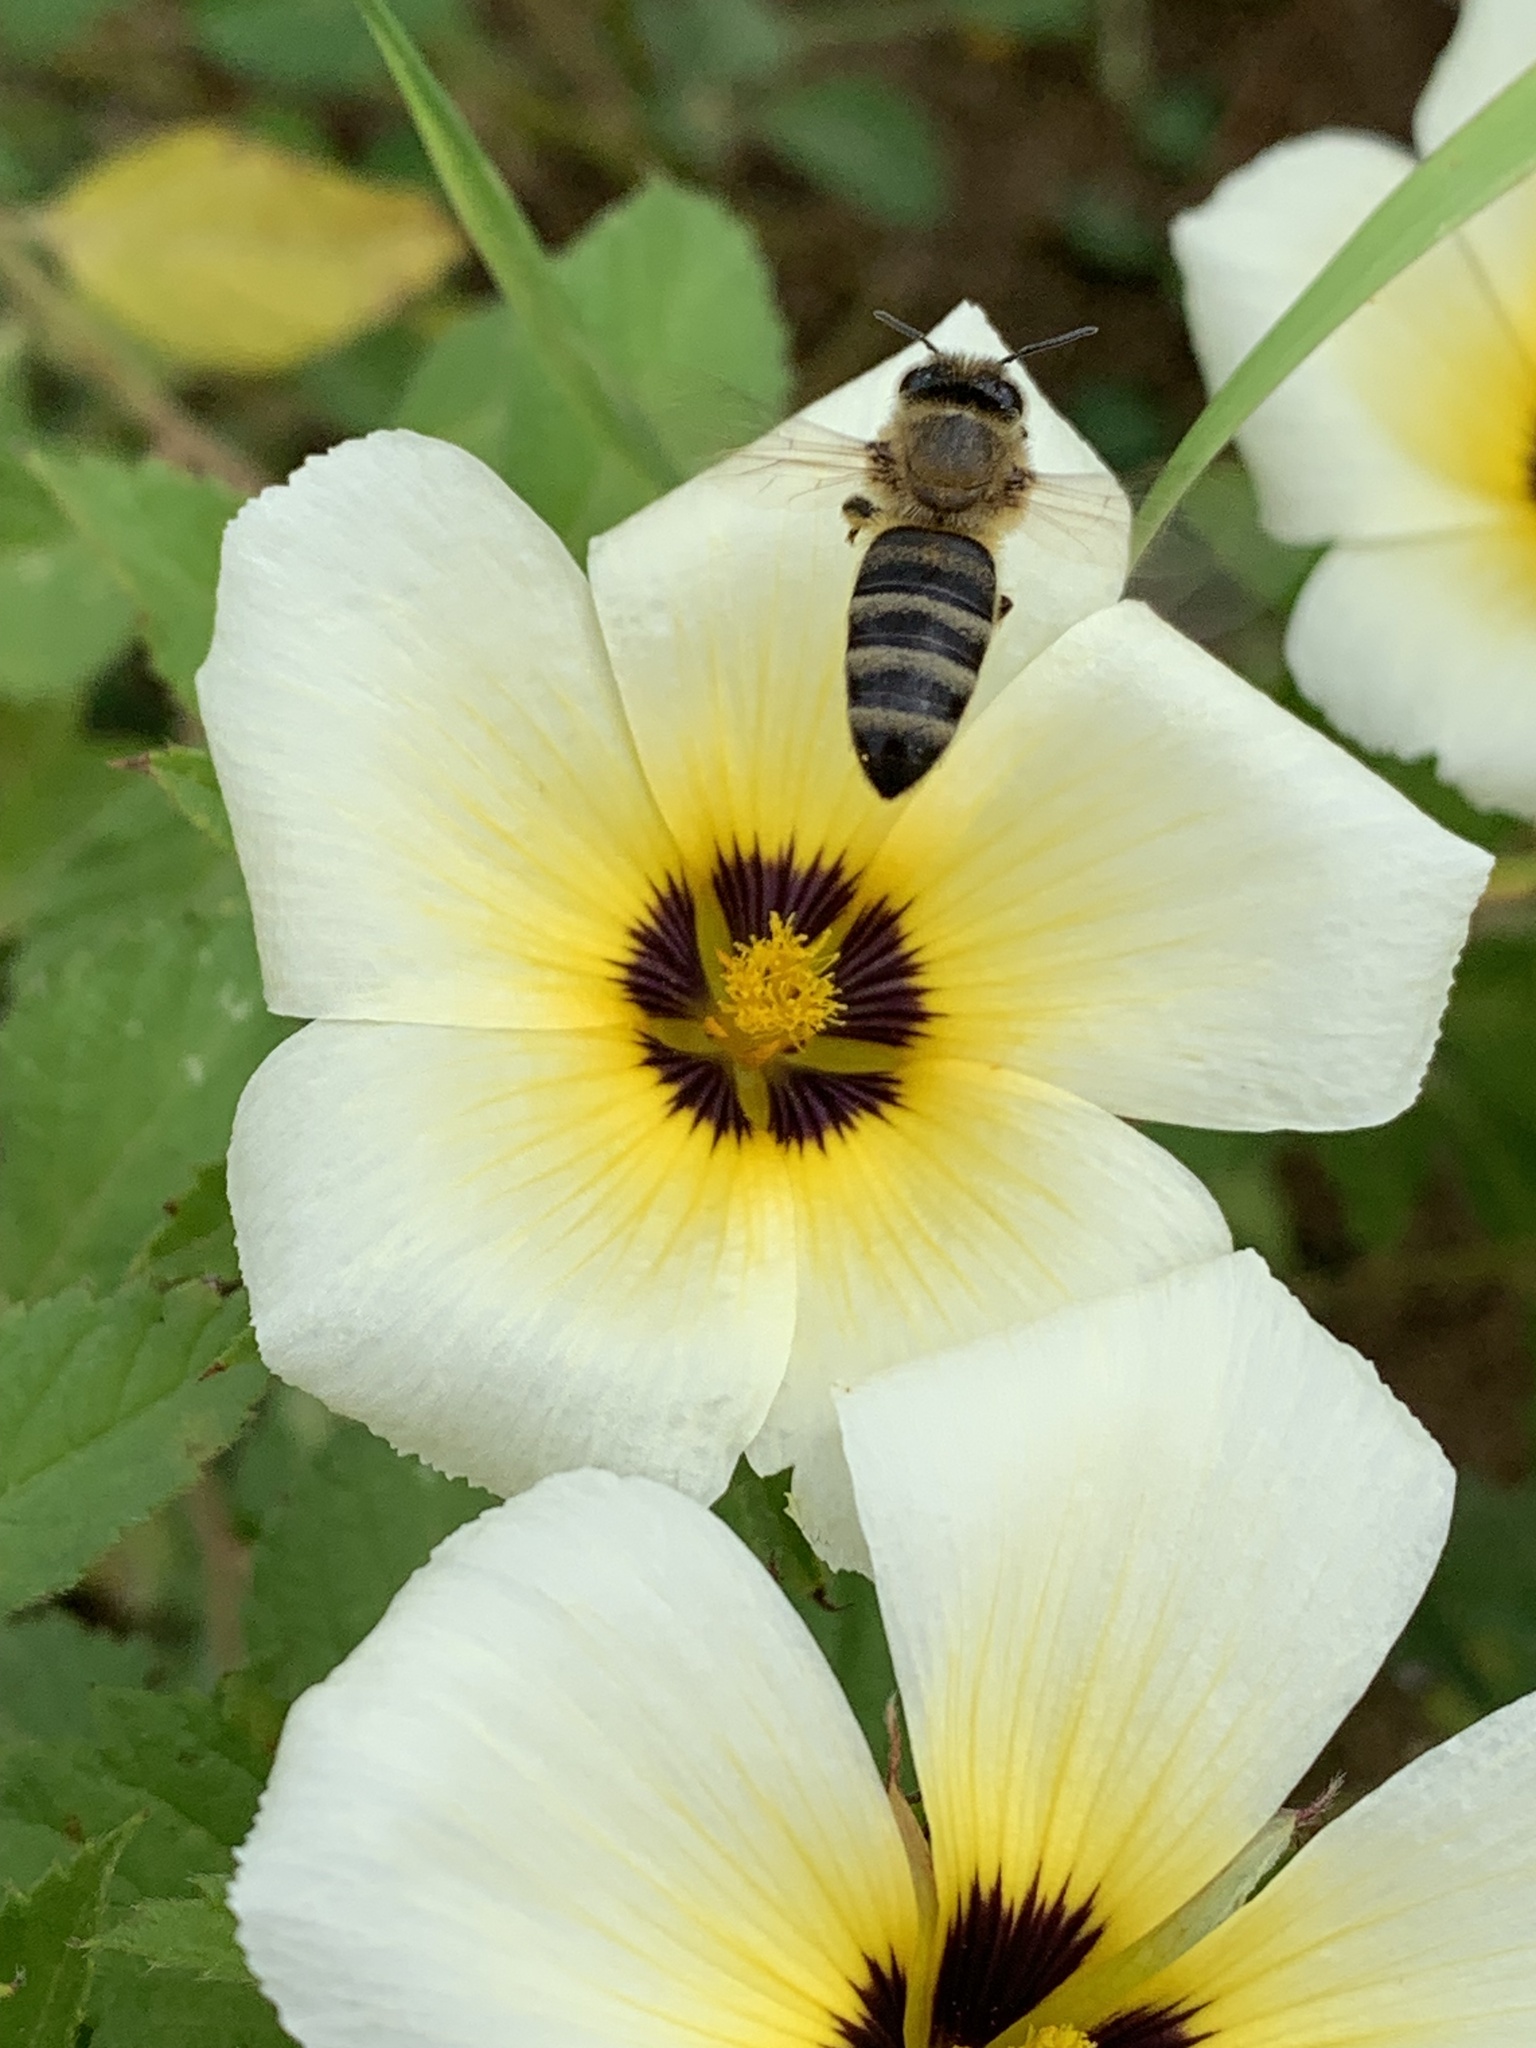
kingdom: Animalia
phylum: Arthropoda
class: Insecta
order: Hymenoptera
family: Apidae
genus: Apis
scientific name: Apis mellifera
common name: Honey bee
